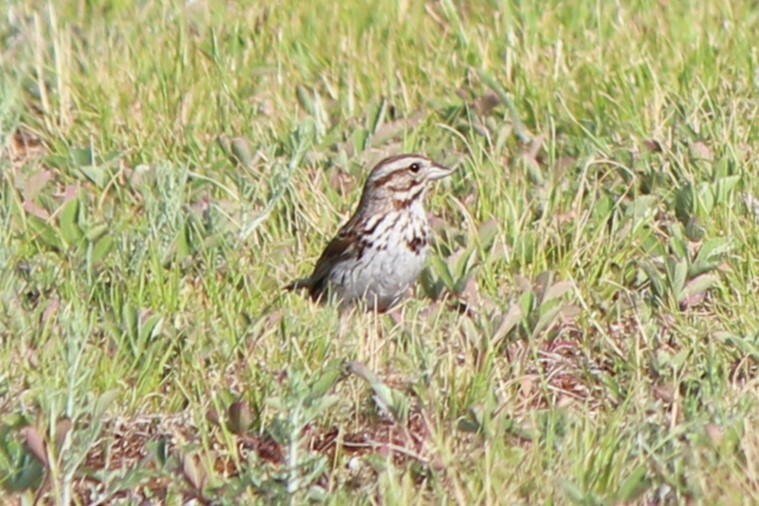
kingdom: Animalia
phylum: Chordata
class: Aves
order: Passeriformes
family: Passerellidae
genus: Melospiza
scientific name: Melospiza melodia
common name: Song sparrow
